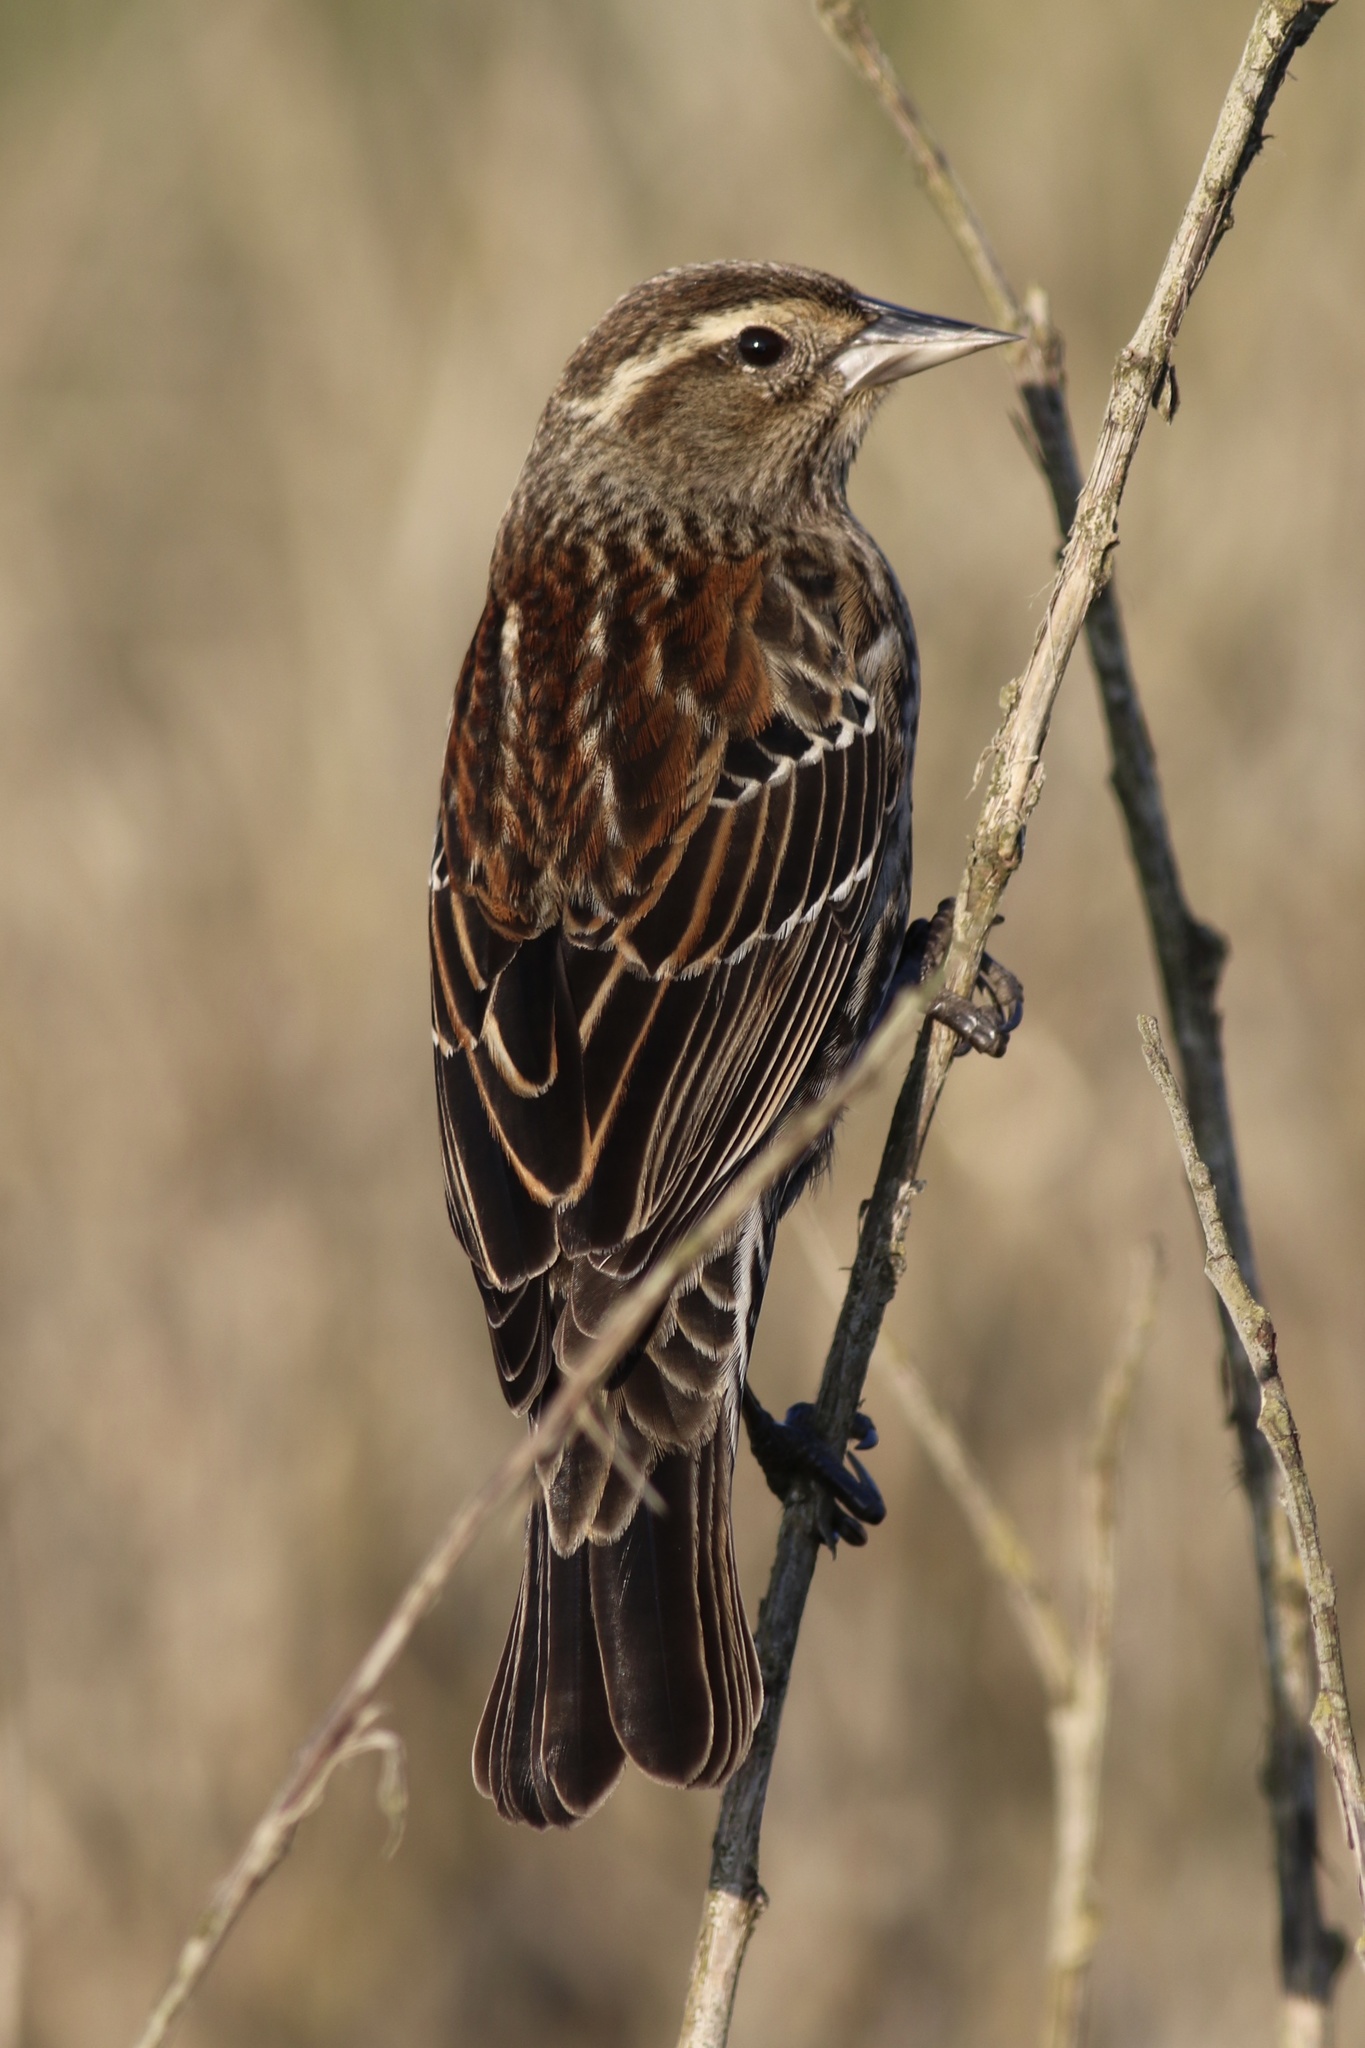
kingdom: Animalia
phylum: Chordata
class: Aves
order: Passeriformes
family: Icteridae
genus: Agelaius
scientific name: Agelaius phoeniceus
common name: Red-winged blackbird
